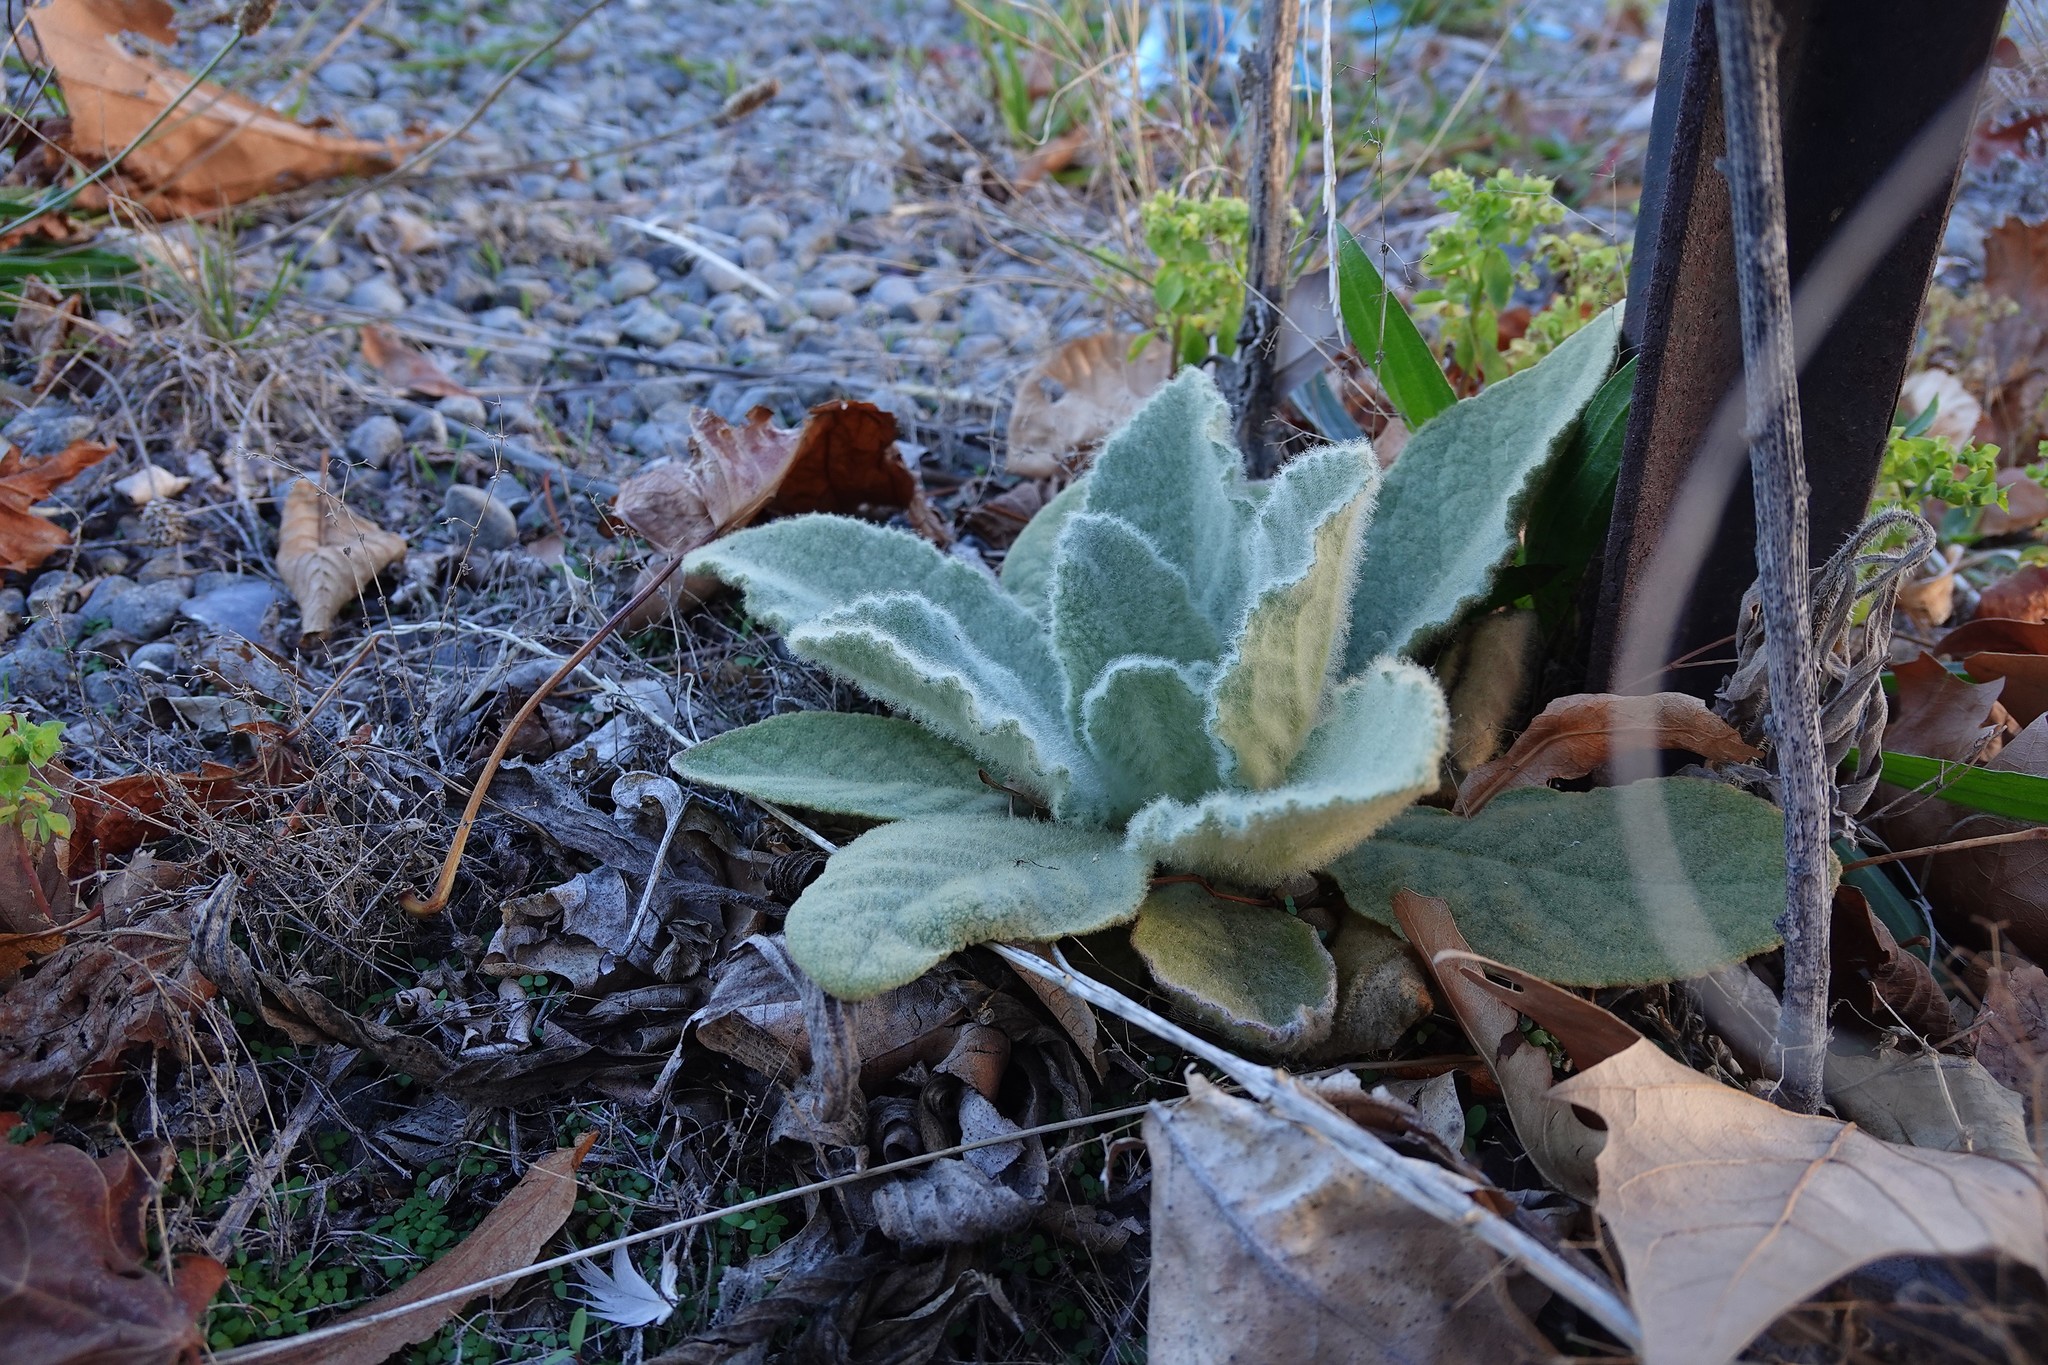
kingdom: Plantae
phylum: Tracheophyta
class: Magnoliopsida
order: Lamiales
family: Scrophulariaceae
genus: Verbascum
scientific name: Verbascum thapsus
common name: Common mullein
